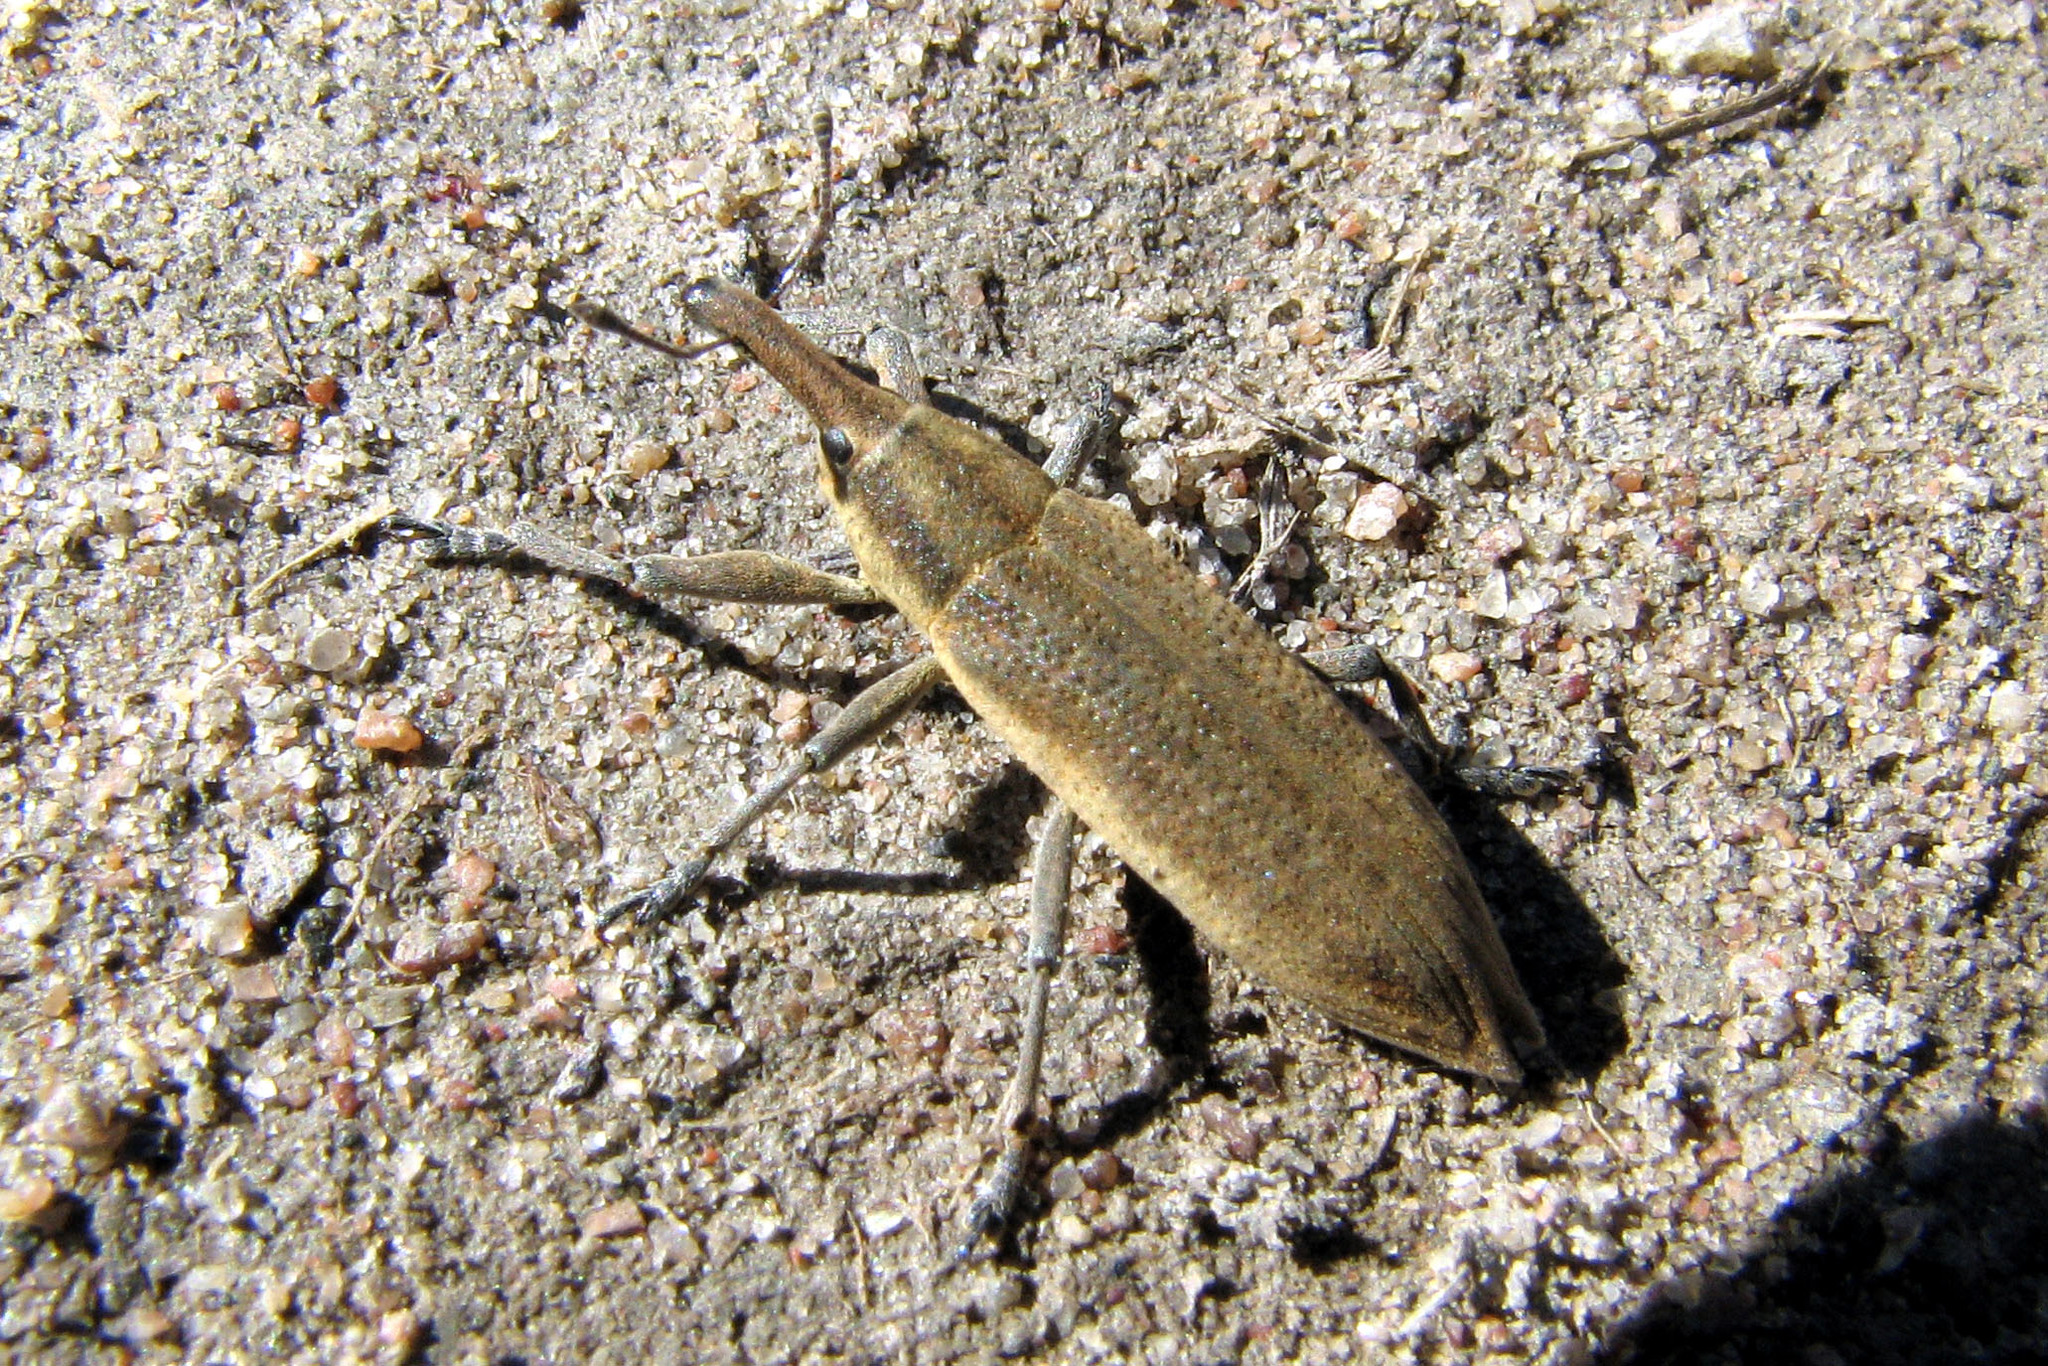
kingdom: Animalia
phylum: Arthropoda
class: Insecta
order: Coleoptera
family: Curculionidae
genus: Lixus
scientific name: Lixus iridis
